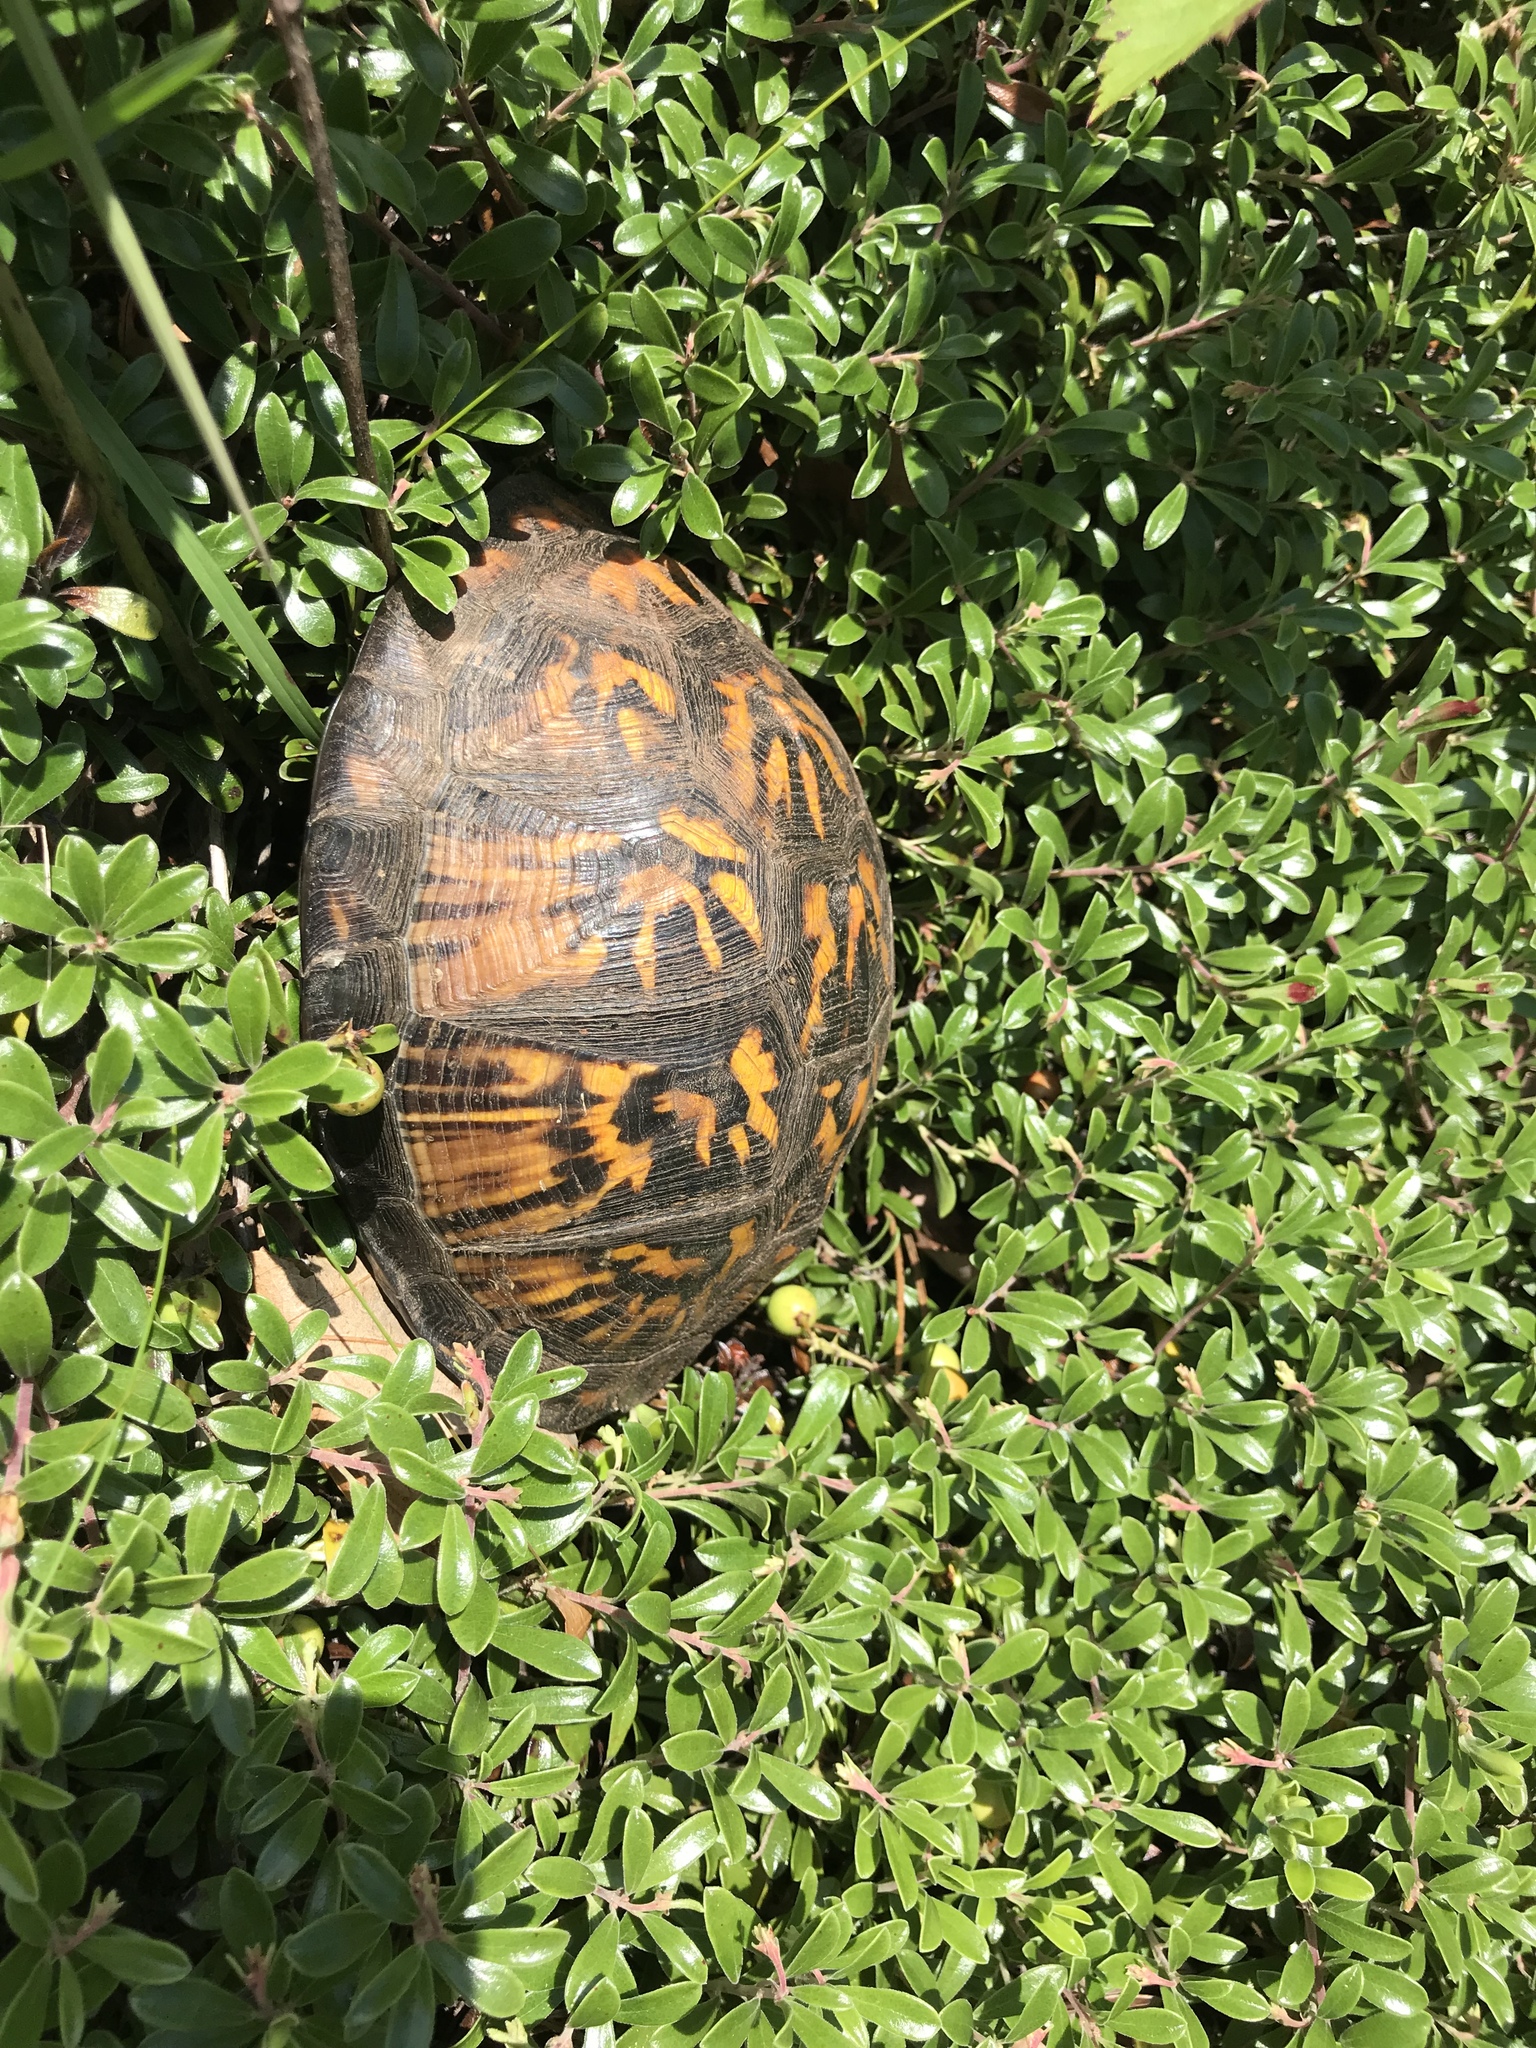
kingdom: Animalia
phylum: Chordata
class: Testudines
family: Emydidae
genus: Terrapene
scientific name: Terrapene carolina
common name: Common box turtle
